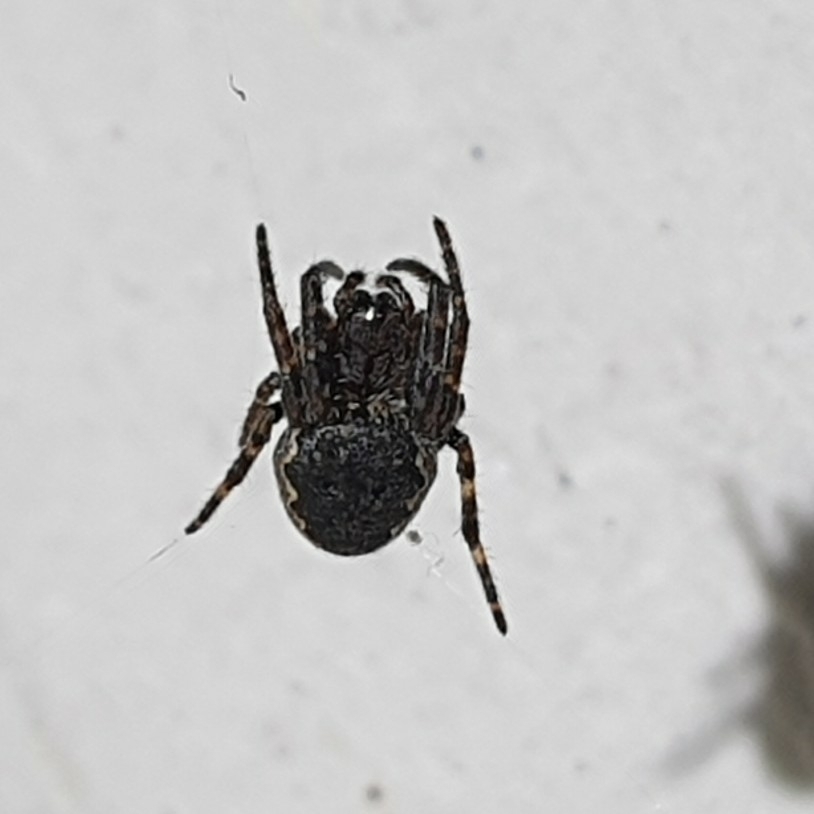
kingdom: Animalia
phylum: Arthropoda
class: Arachnida
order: Araneae
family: Araneidae
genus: Nuctenea
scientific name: Nuctenea umbratica
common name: Toad spider
